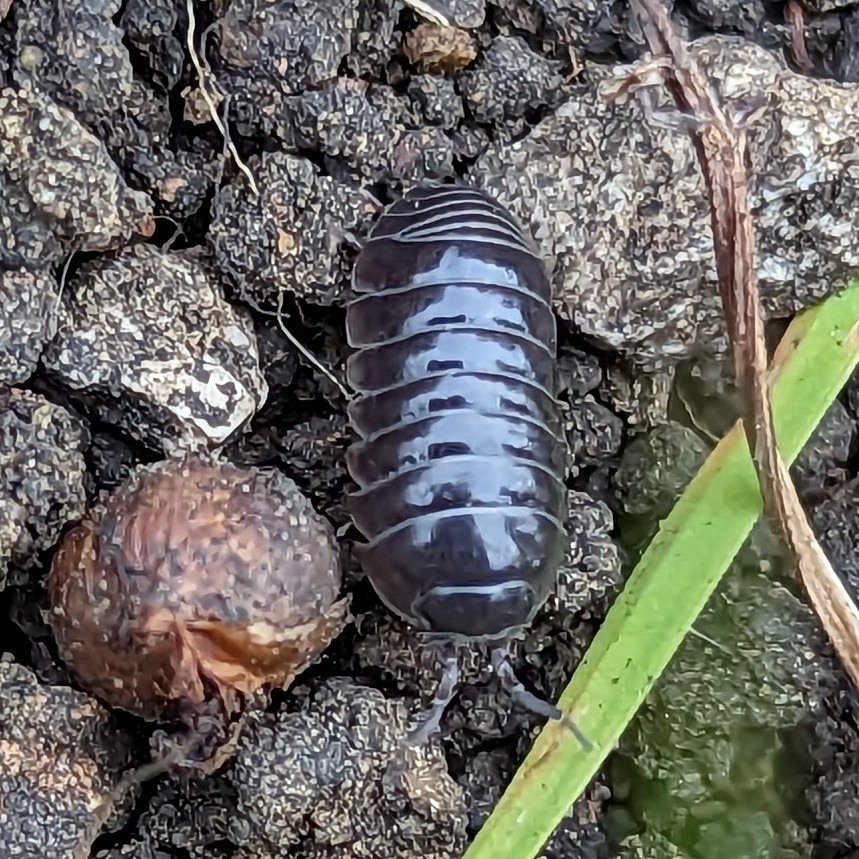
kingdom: Animalia
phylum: Arthropoda
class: Malacostraca
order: Isopoda
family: Armadillidiidae
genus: Armadillidium
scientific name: Armadillidium vulgare
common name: Common pill woodlouse
